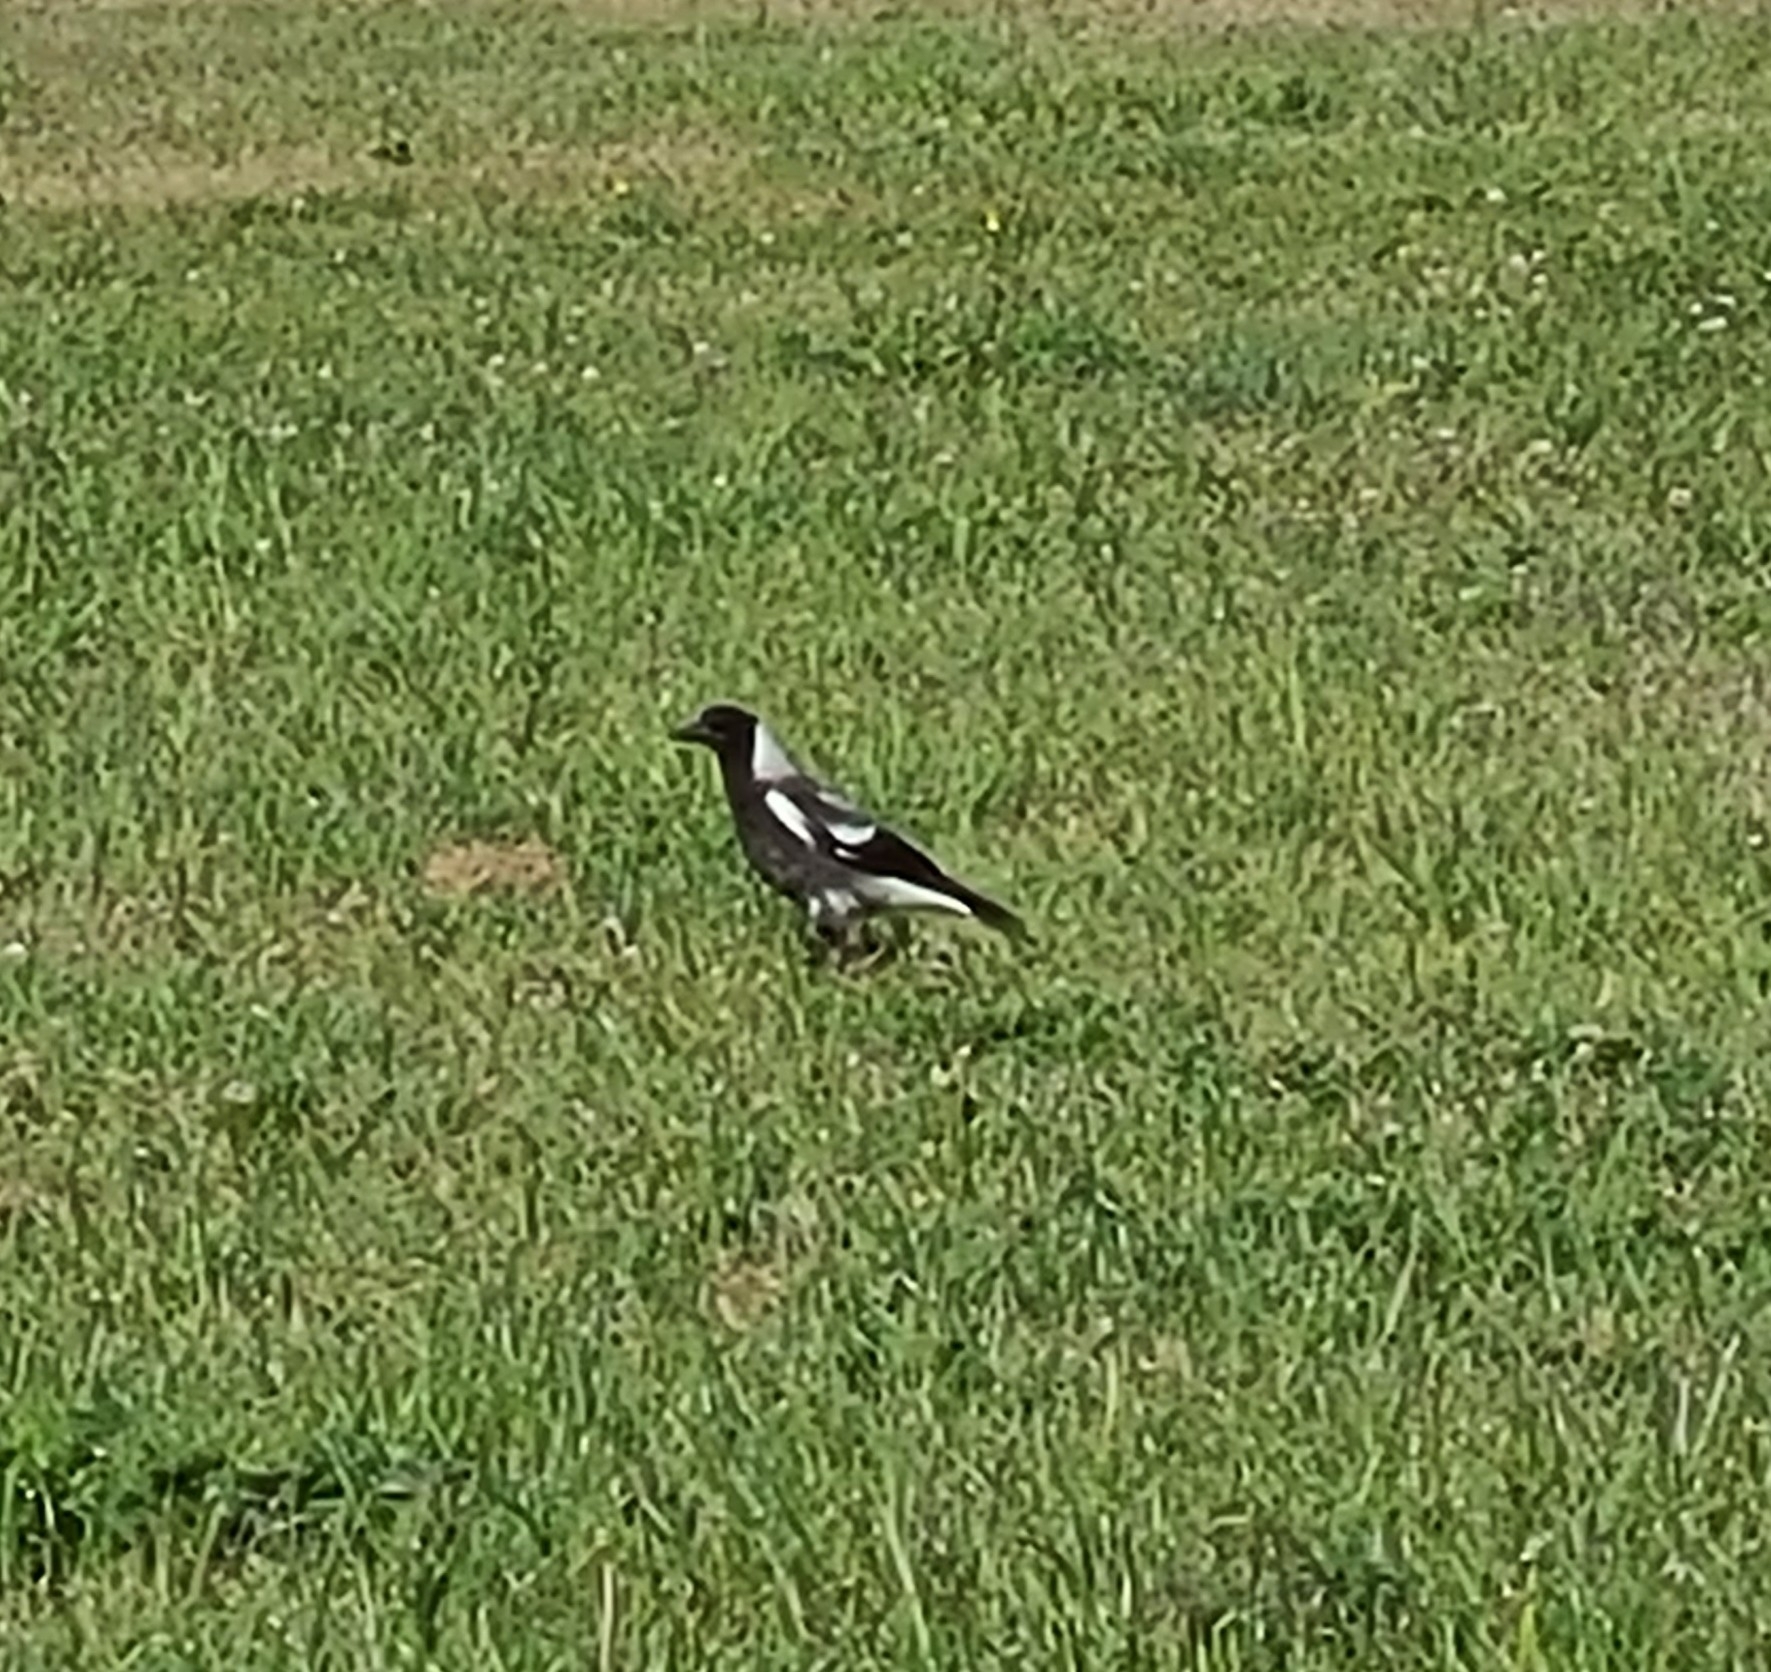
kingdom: Animalia
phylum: Chordata
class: Aves
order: Passeriformes
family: Cracticidae
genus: Gymnorhina
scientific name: Gymnorhina tibicen
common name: Australian magpie
